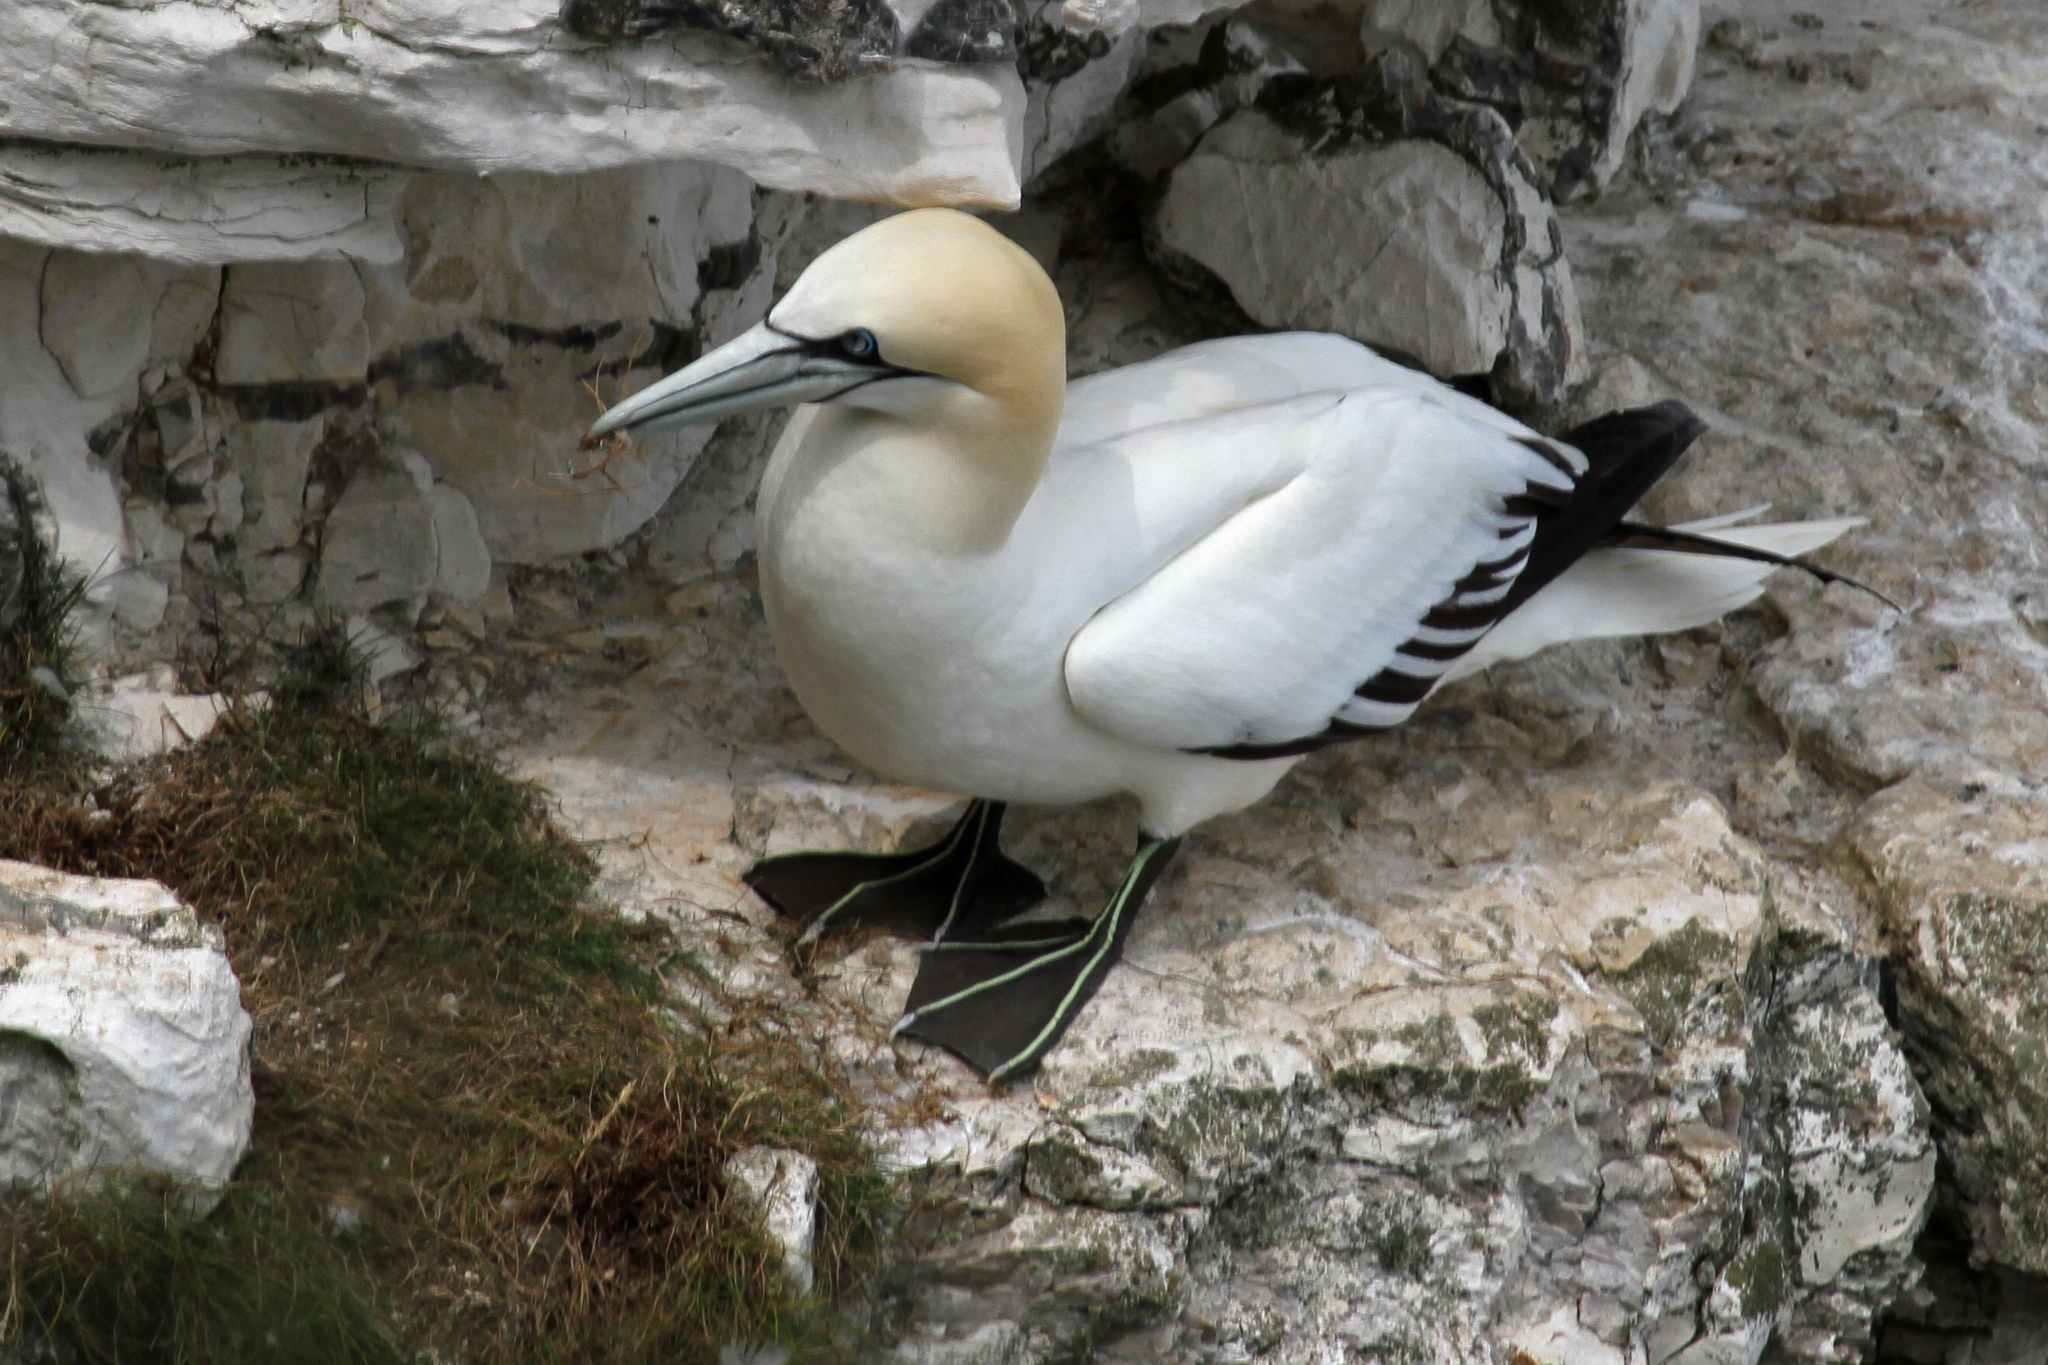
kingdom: Animalia
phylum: Chordata
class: Aves
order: Suliformes
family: Sulidae
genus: Morus
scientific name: Morus bassanus
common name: Northern gannet
